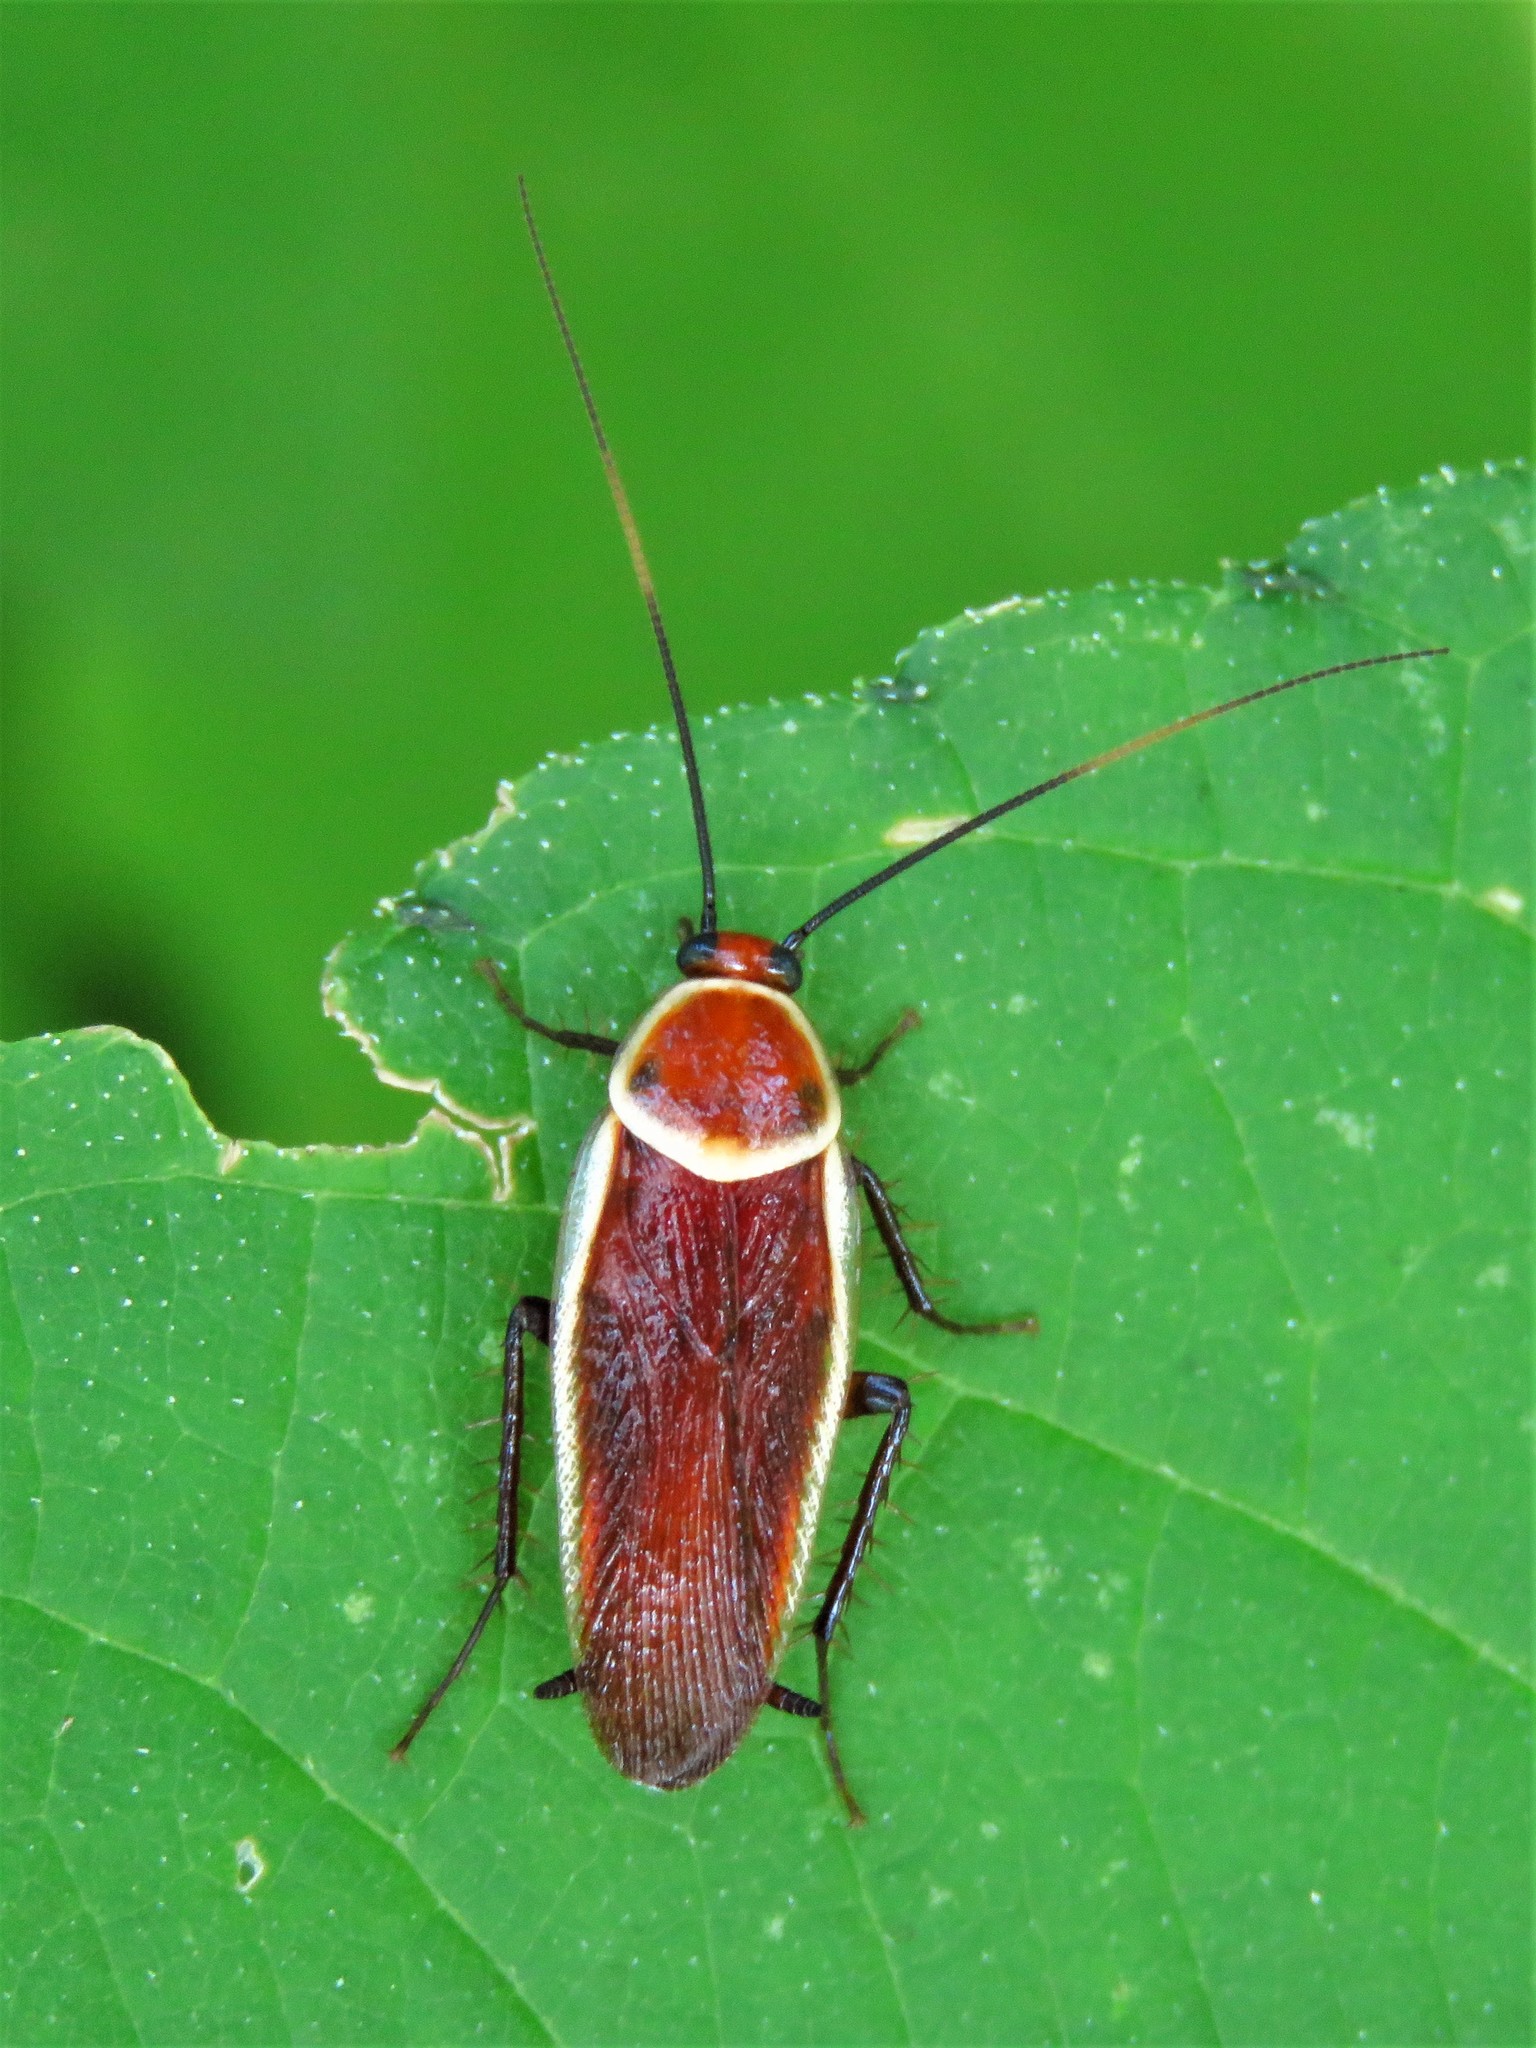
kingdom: Animalia
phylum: Arthropoda
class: Insecta
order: Blattodea
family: Ectobiidae
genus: Pseudomops
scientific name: Pseudomops septentrionalis
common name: Pale-bordered field cockroach
